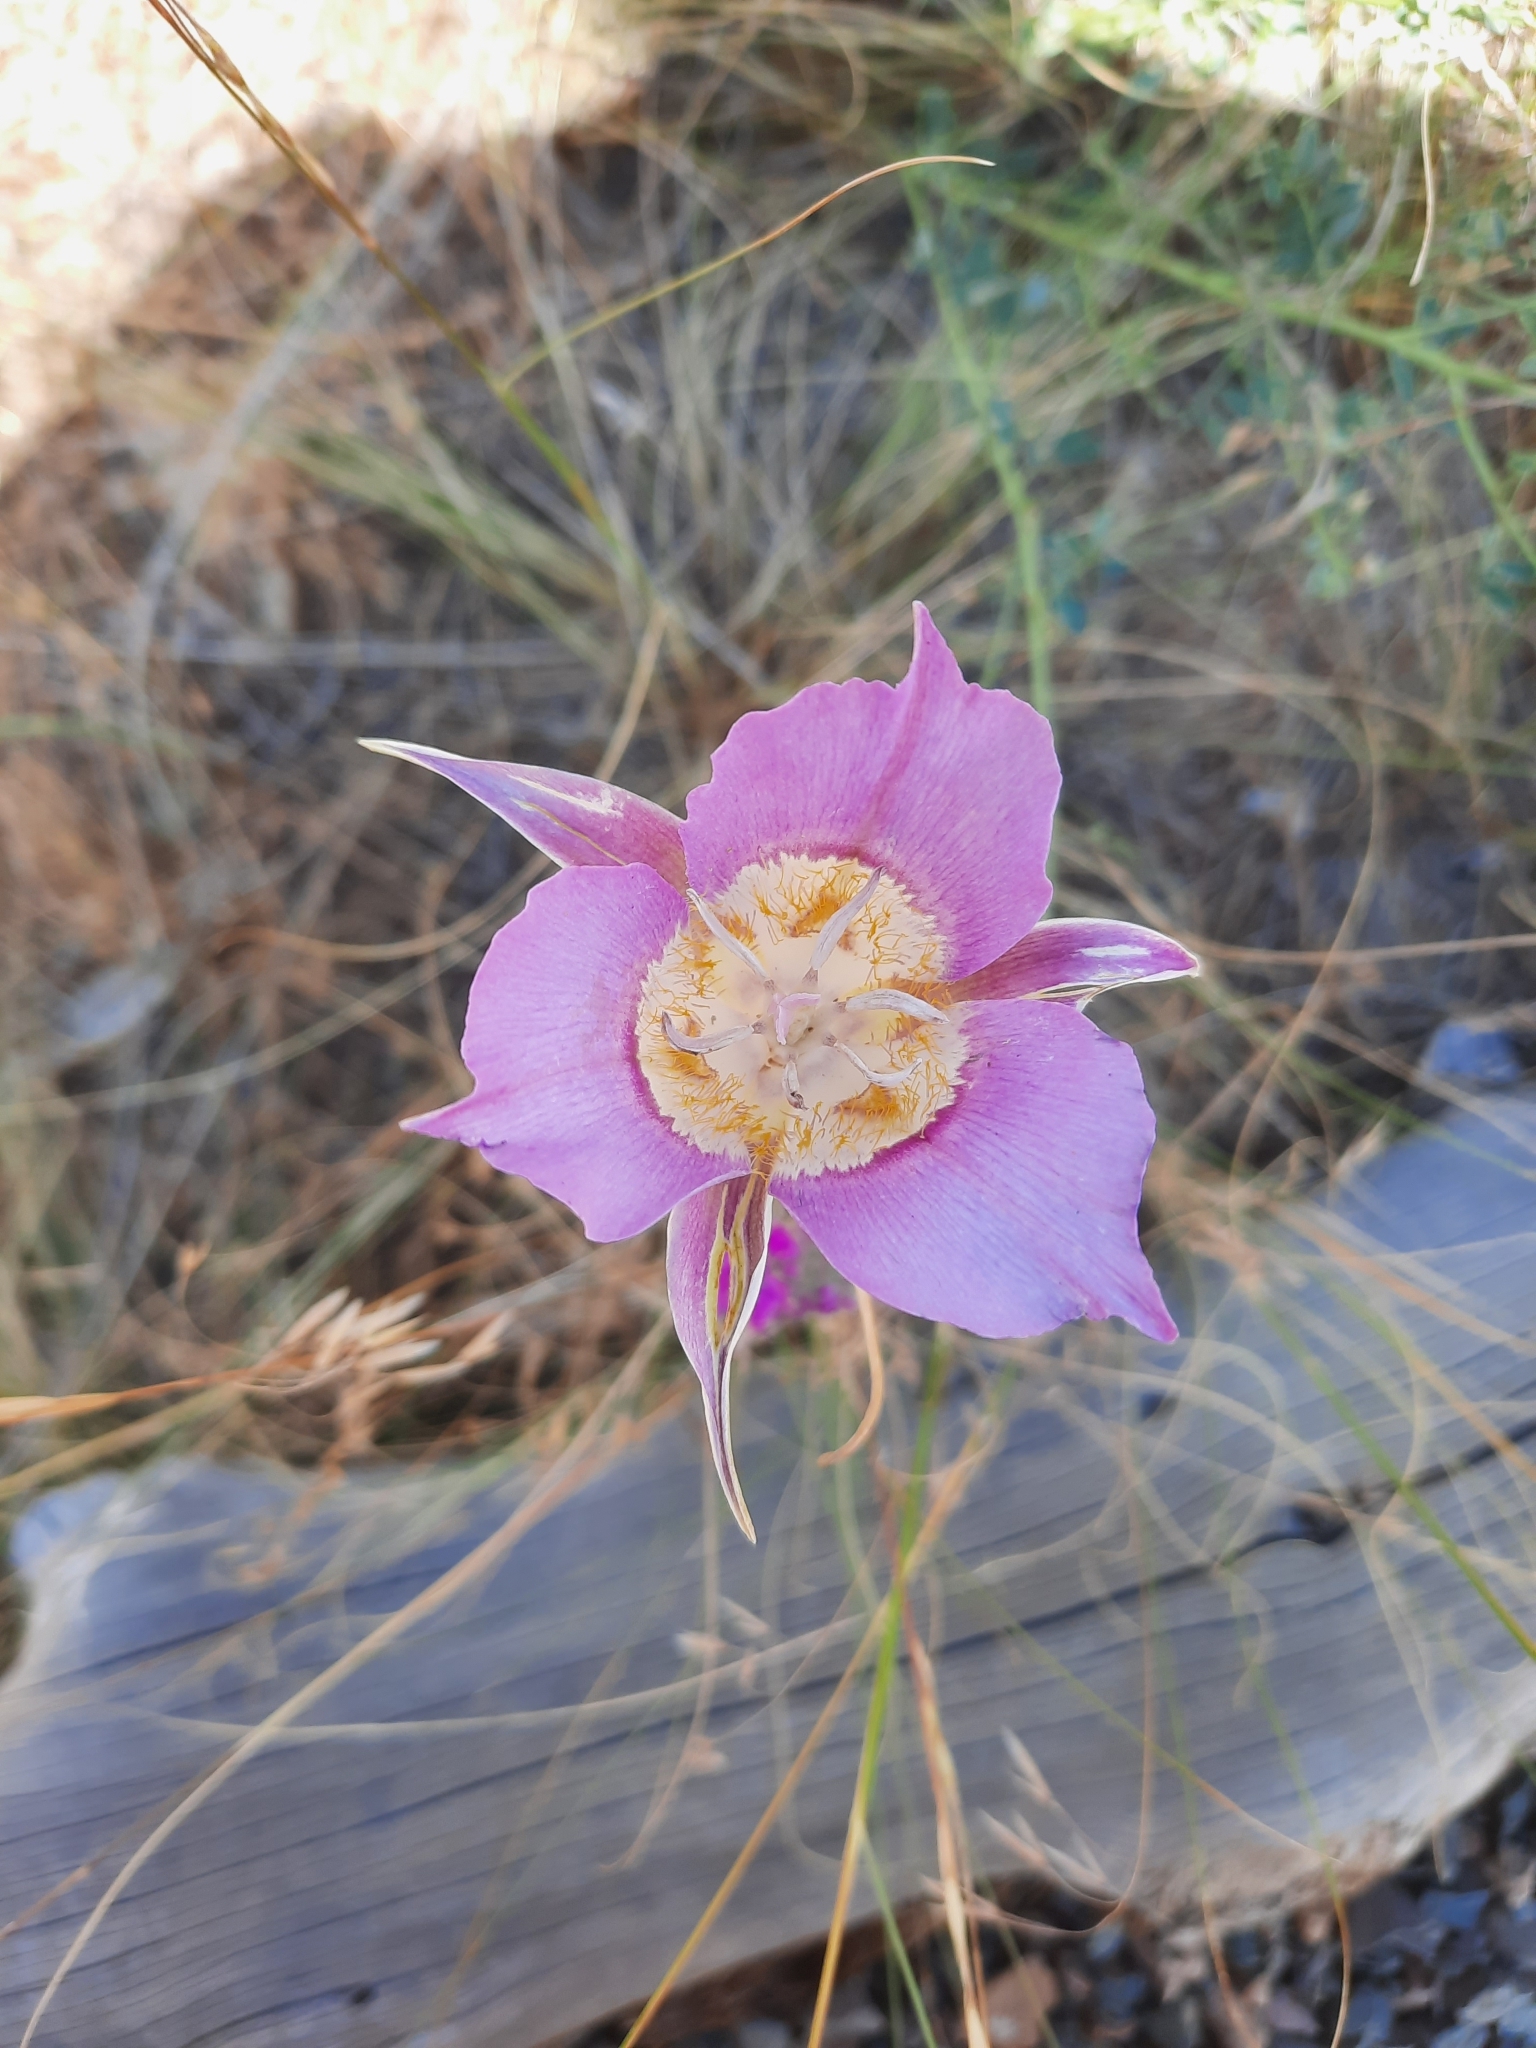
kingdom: Plantae
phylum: Tracheophyta
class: Liliopsida
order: Liliales
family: Liliaceae
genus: Calochortus
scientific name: Calochortus macrocarpus
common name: Green-band mariposa lily
